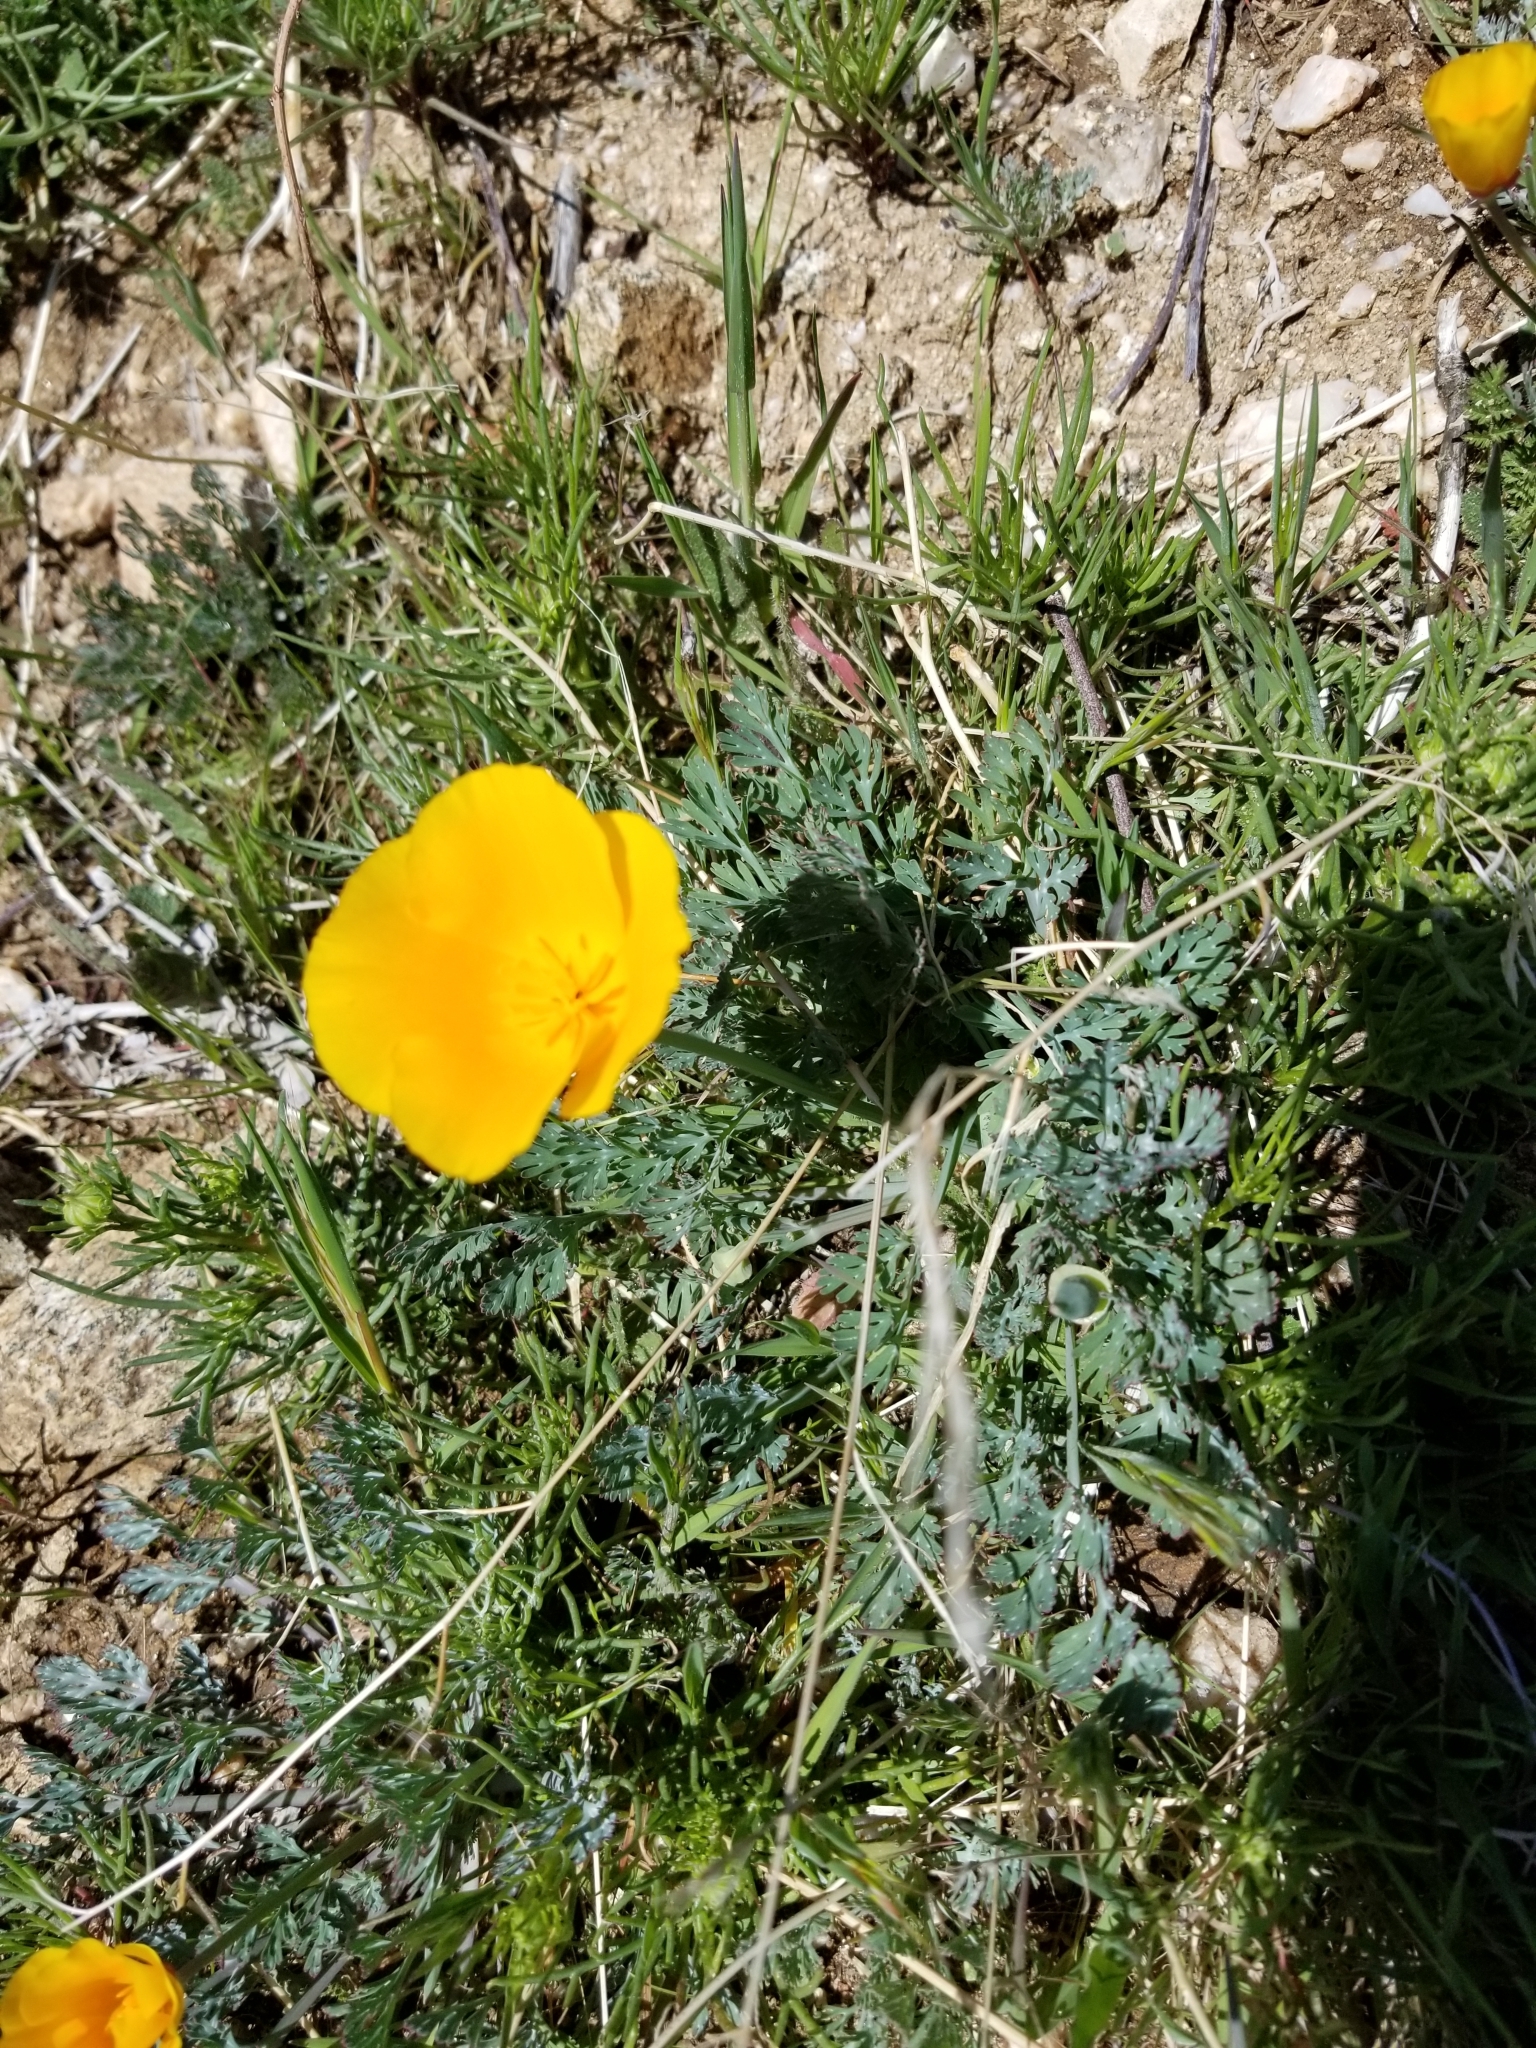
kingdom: Plantae
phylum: Tracheophyta
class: Magnoliopsida
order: Ranunculales
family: Papaveraceae
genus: Eschscholzia
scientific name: Eschscholzia californica
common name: California poppy
